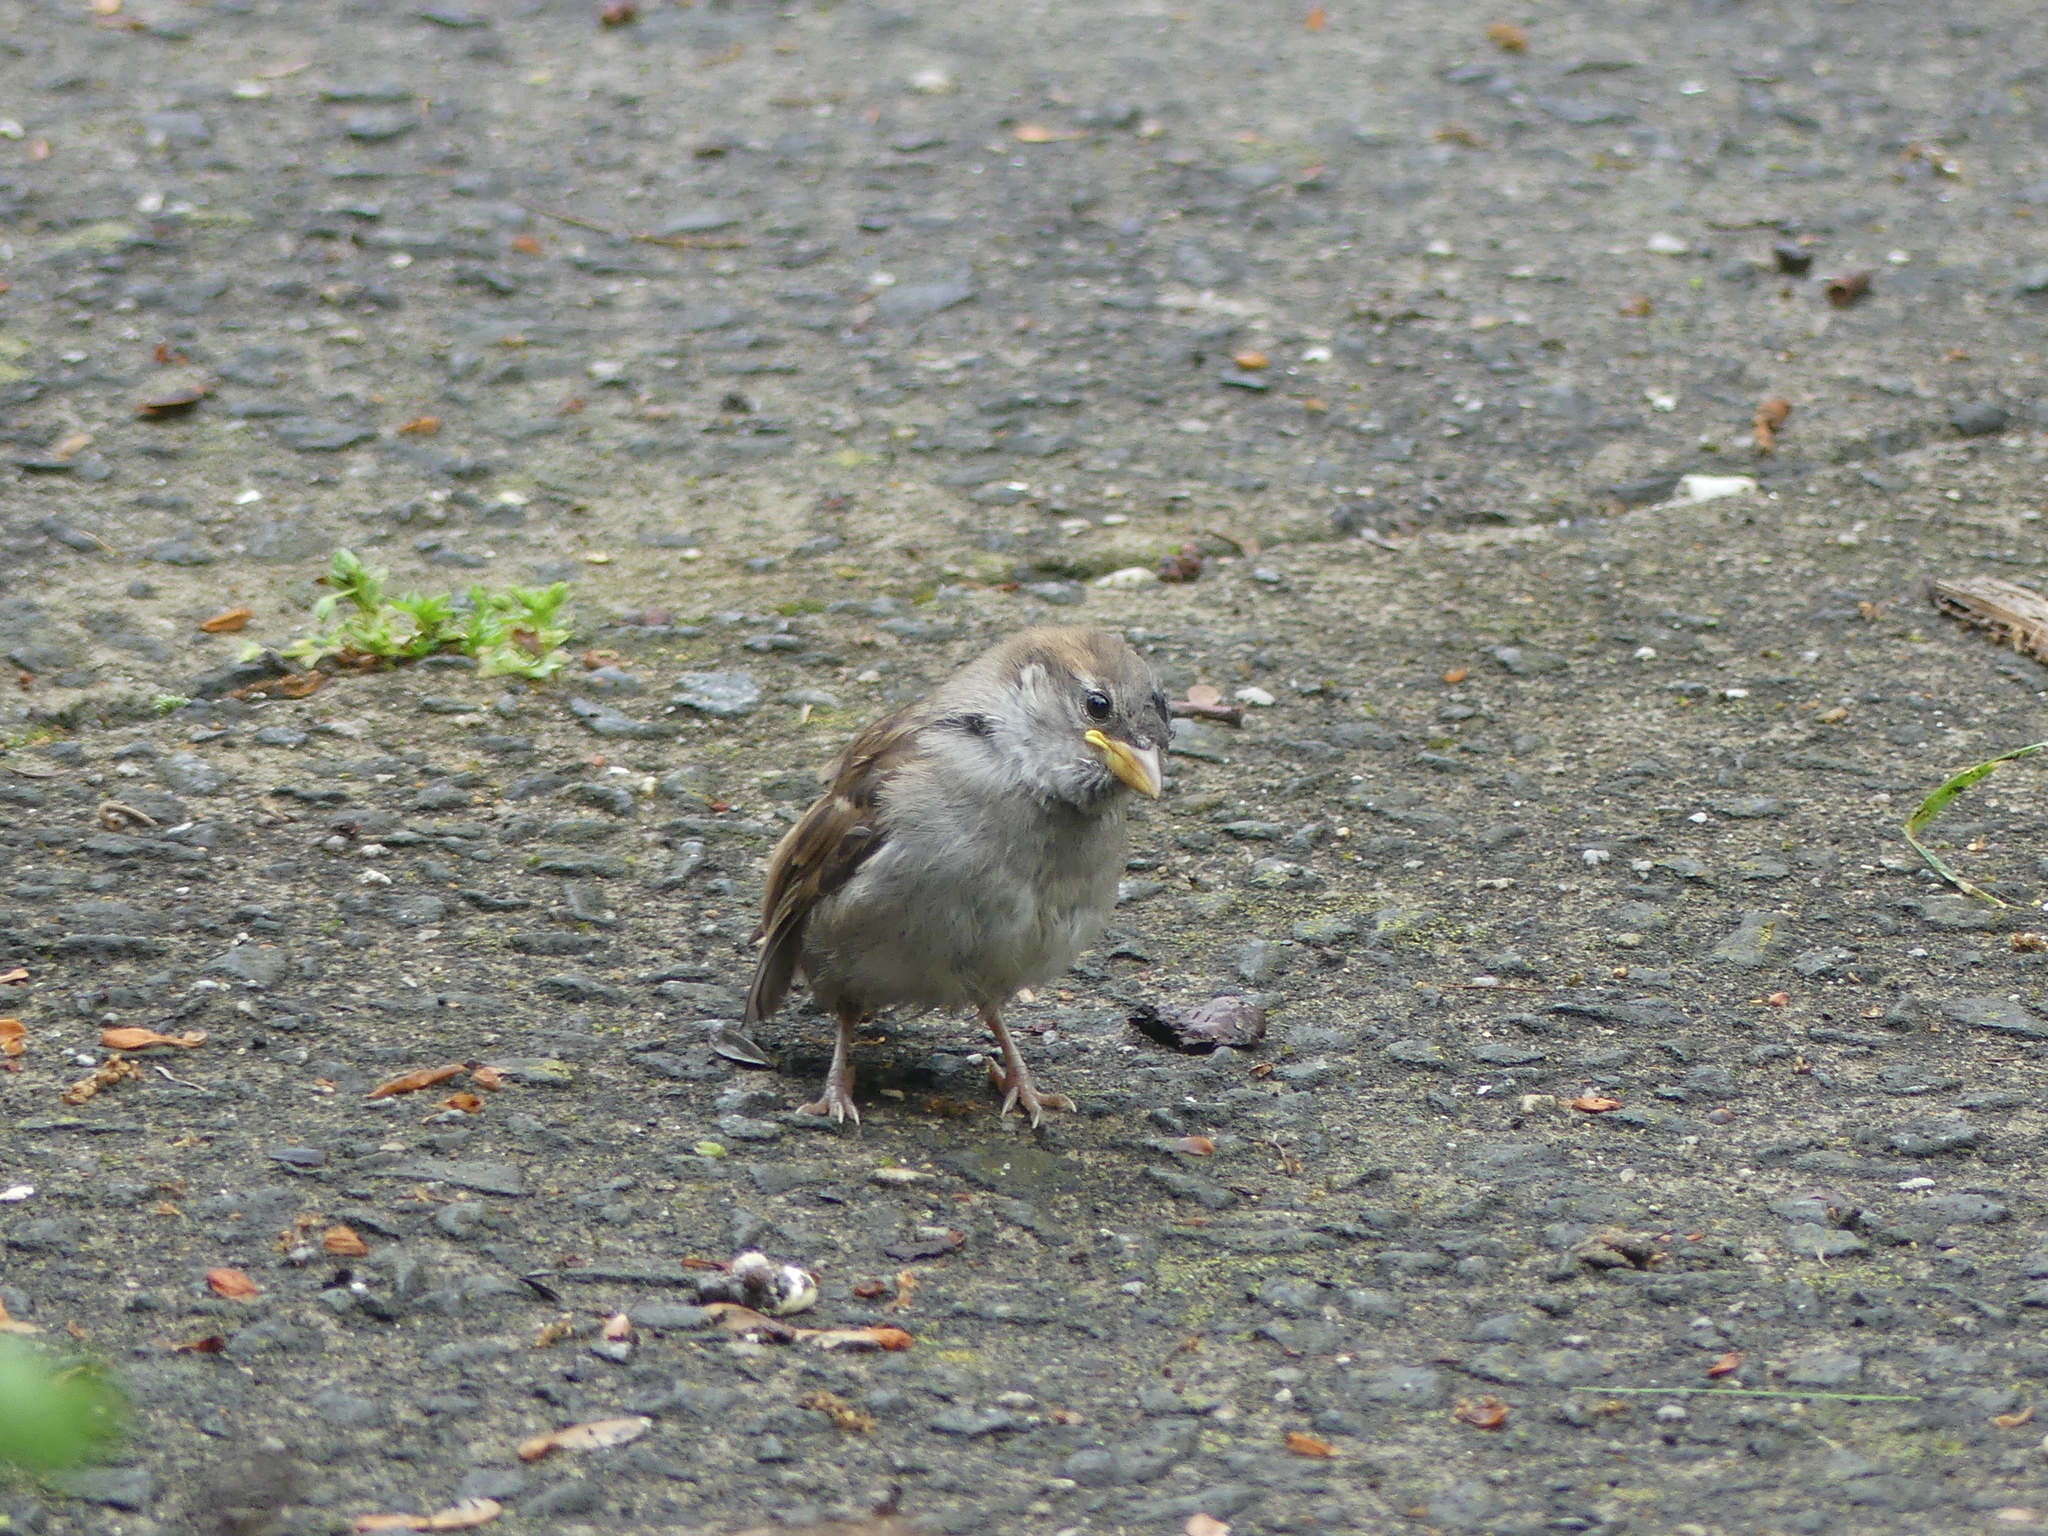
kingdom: Animalia
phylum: Chordata
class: Aves
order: Passeriformes
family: Passeridae
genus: Passer
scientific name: Passer domesticus
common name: House sparrow
